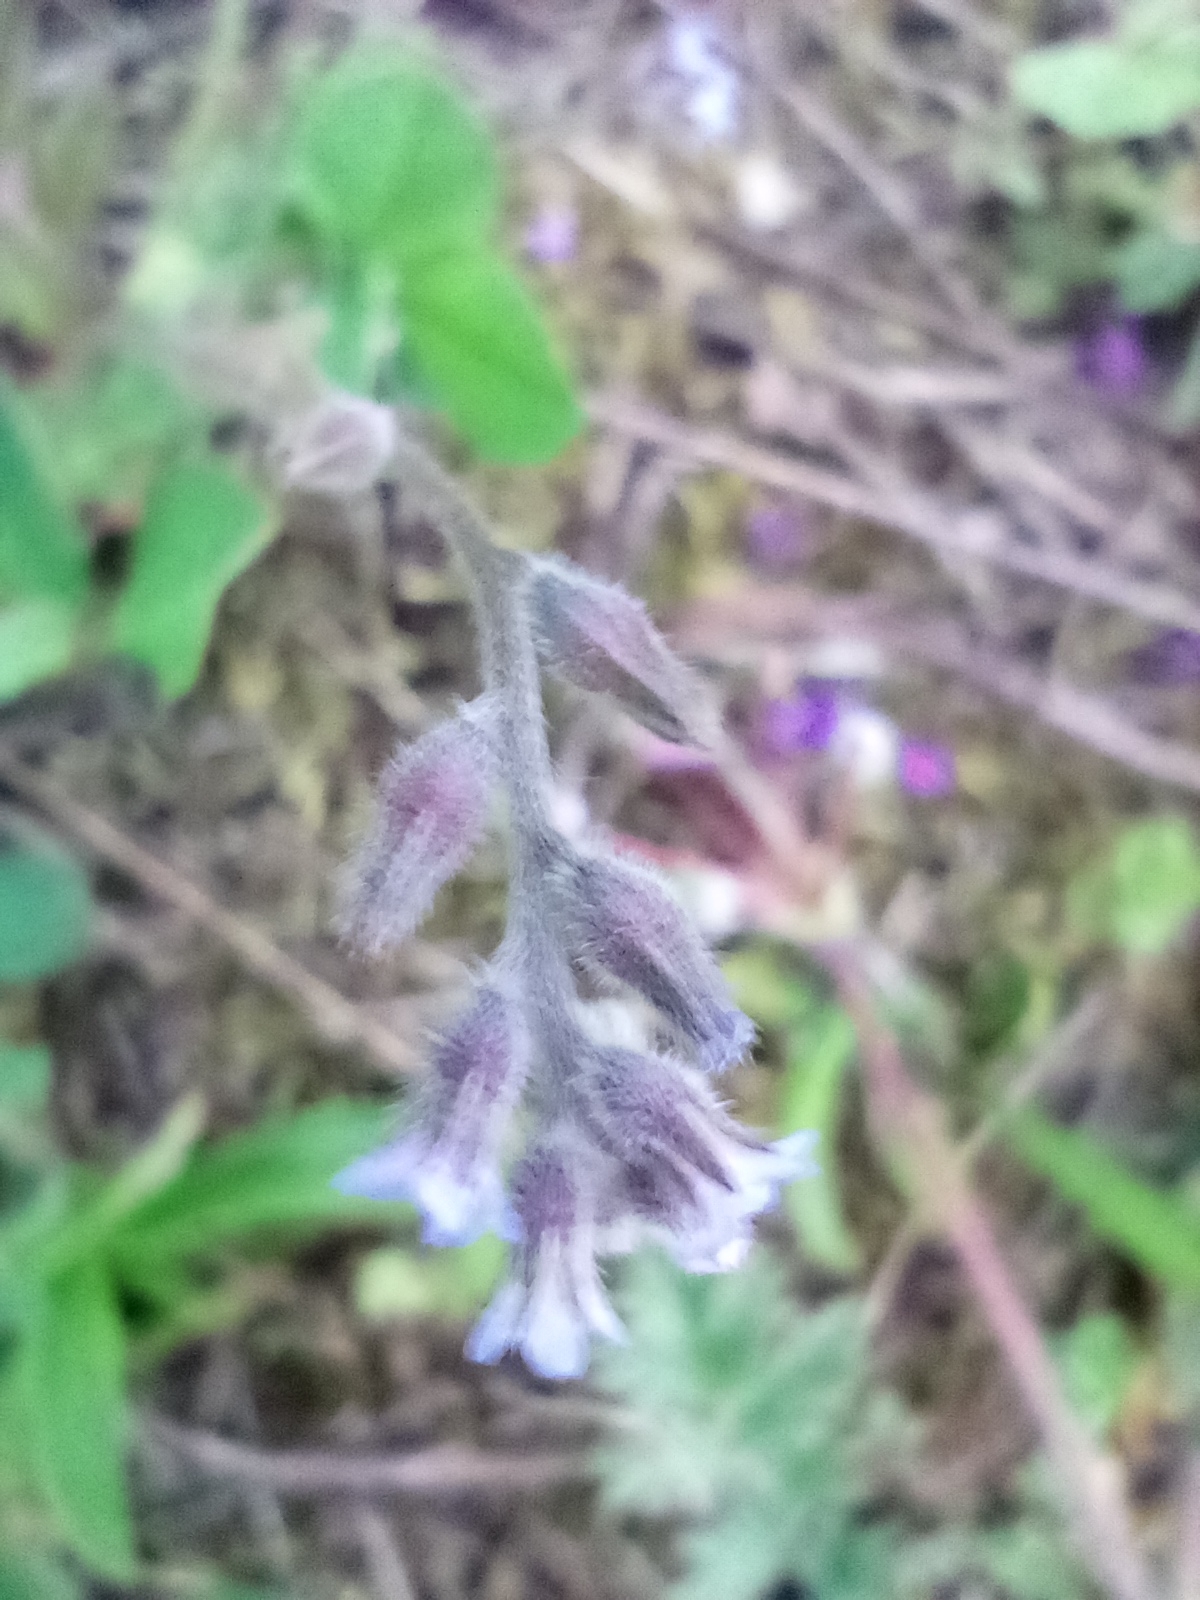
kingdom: Plantae
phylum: Tracheophyta
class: Magnoliopsida
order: Boraginales
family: Boraginaceae
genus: Myosotis
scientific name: Myosotis stricta
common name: Strict forget-me-not
